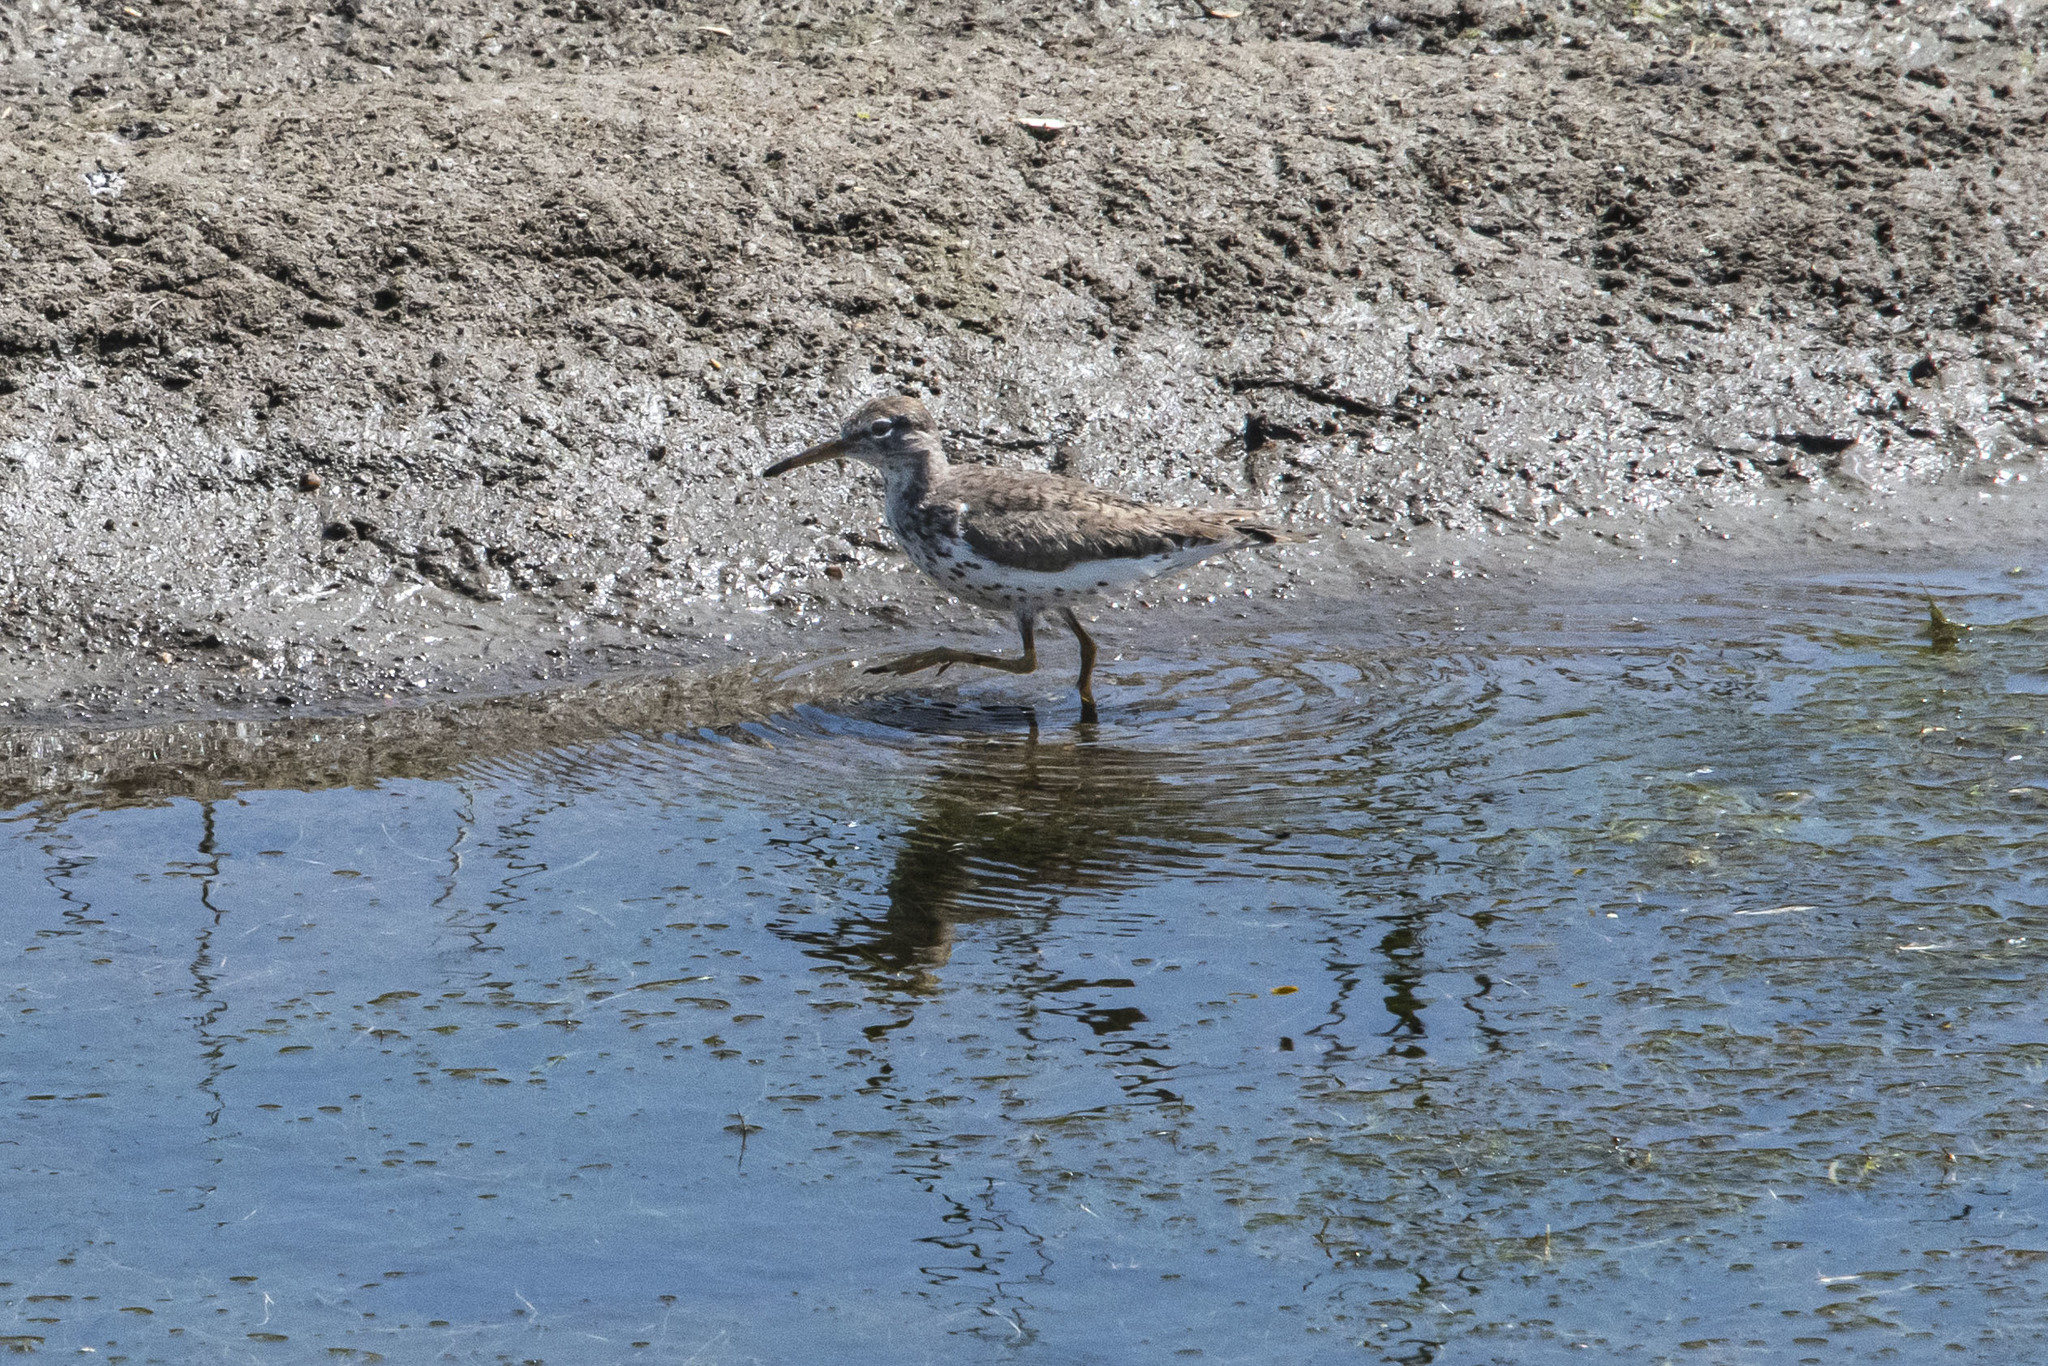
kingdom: Animalia
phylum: Chordata
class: Aves
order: Charadriiformes
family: Scolopacidae
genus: Actitis
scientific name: Actitis macularius
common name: Spotted sandpiper
